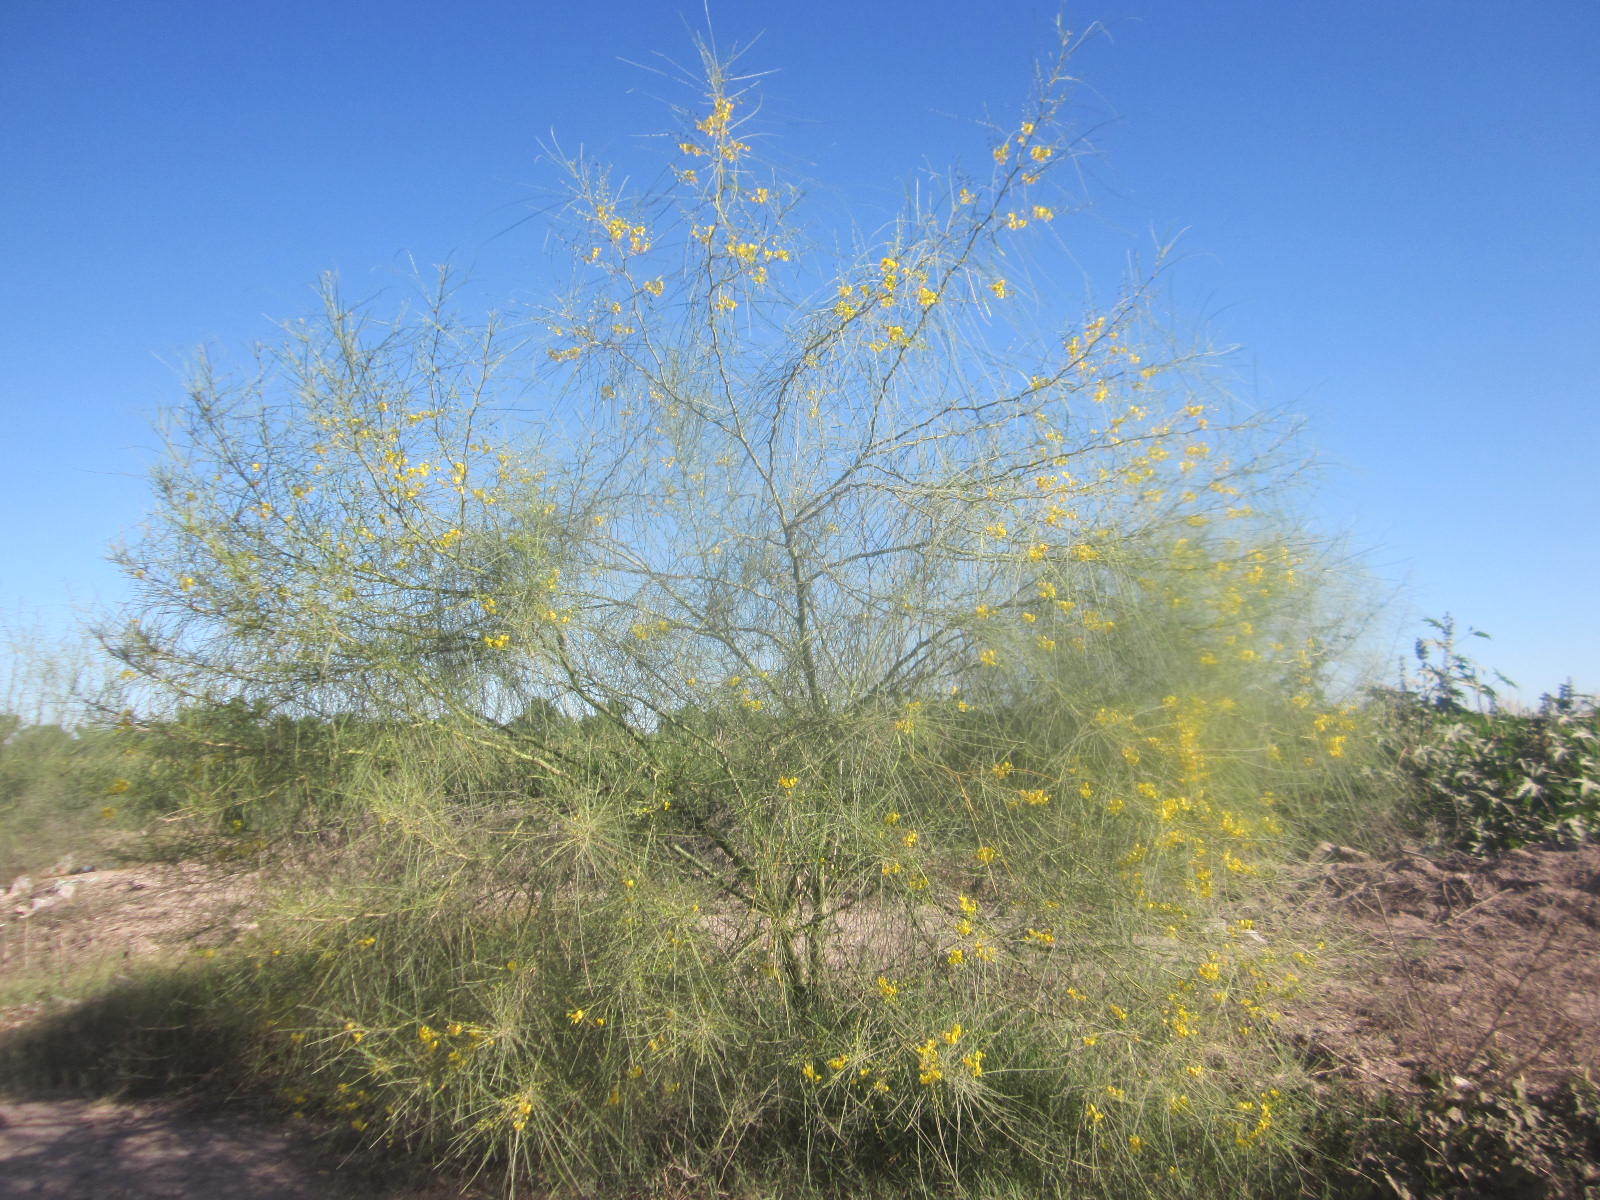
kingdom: Plantae
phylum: Tracheophyta
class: Magnoliopsida
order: Fabales
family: Fabaceae
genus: Parkinsonia
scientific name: Parkinsonia aculeata
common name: Jerusalem thorn
